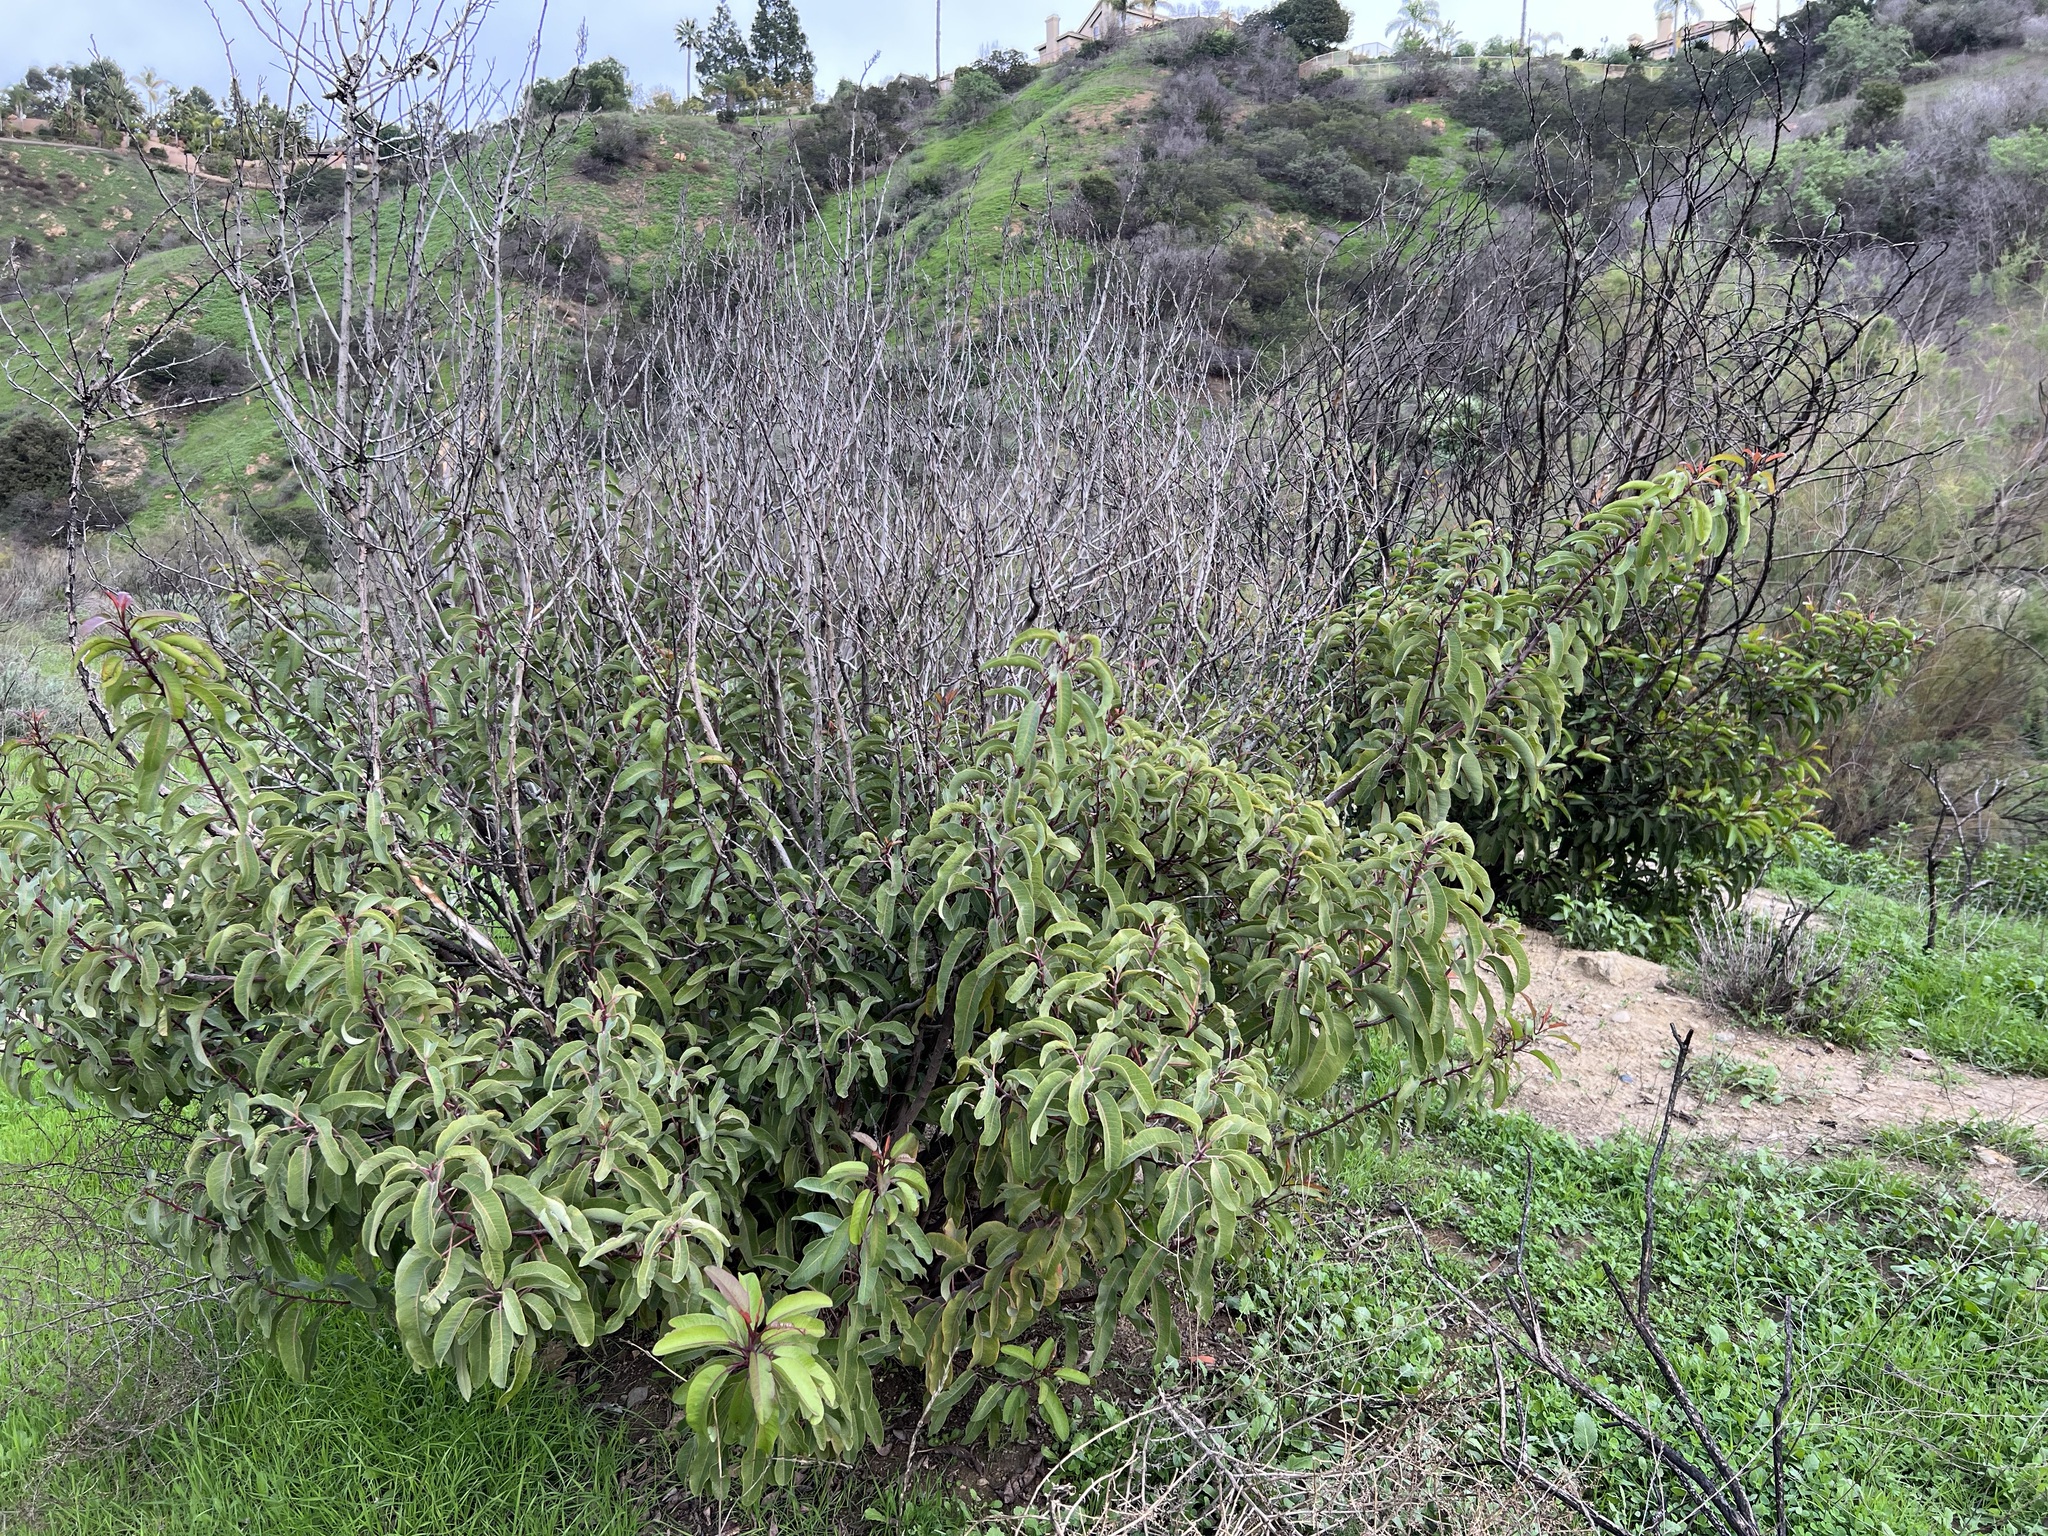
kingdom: Plantae
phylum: Tracheophyta
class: Magnoliopsida
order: Sapindales
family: Anacardiaceae
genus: Malosma
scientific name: Malosma laurina
